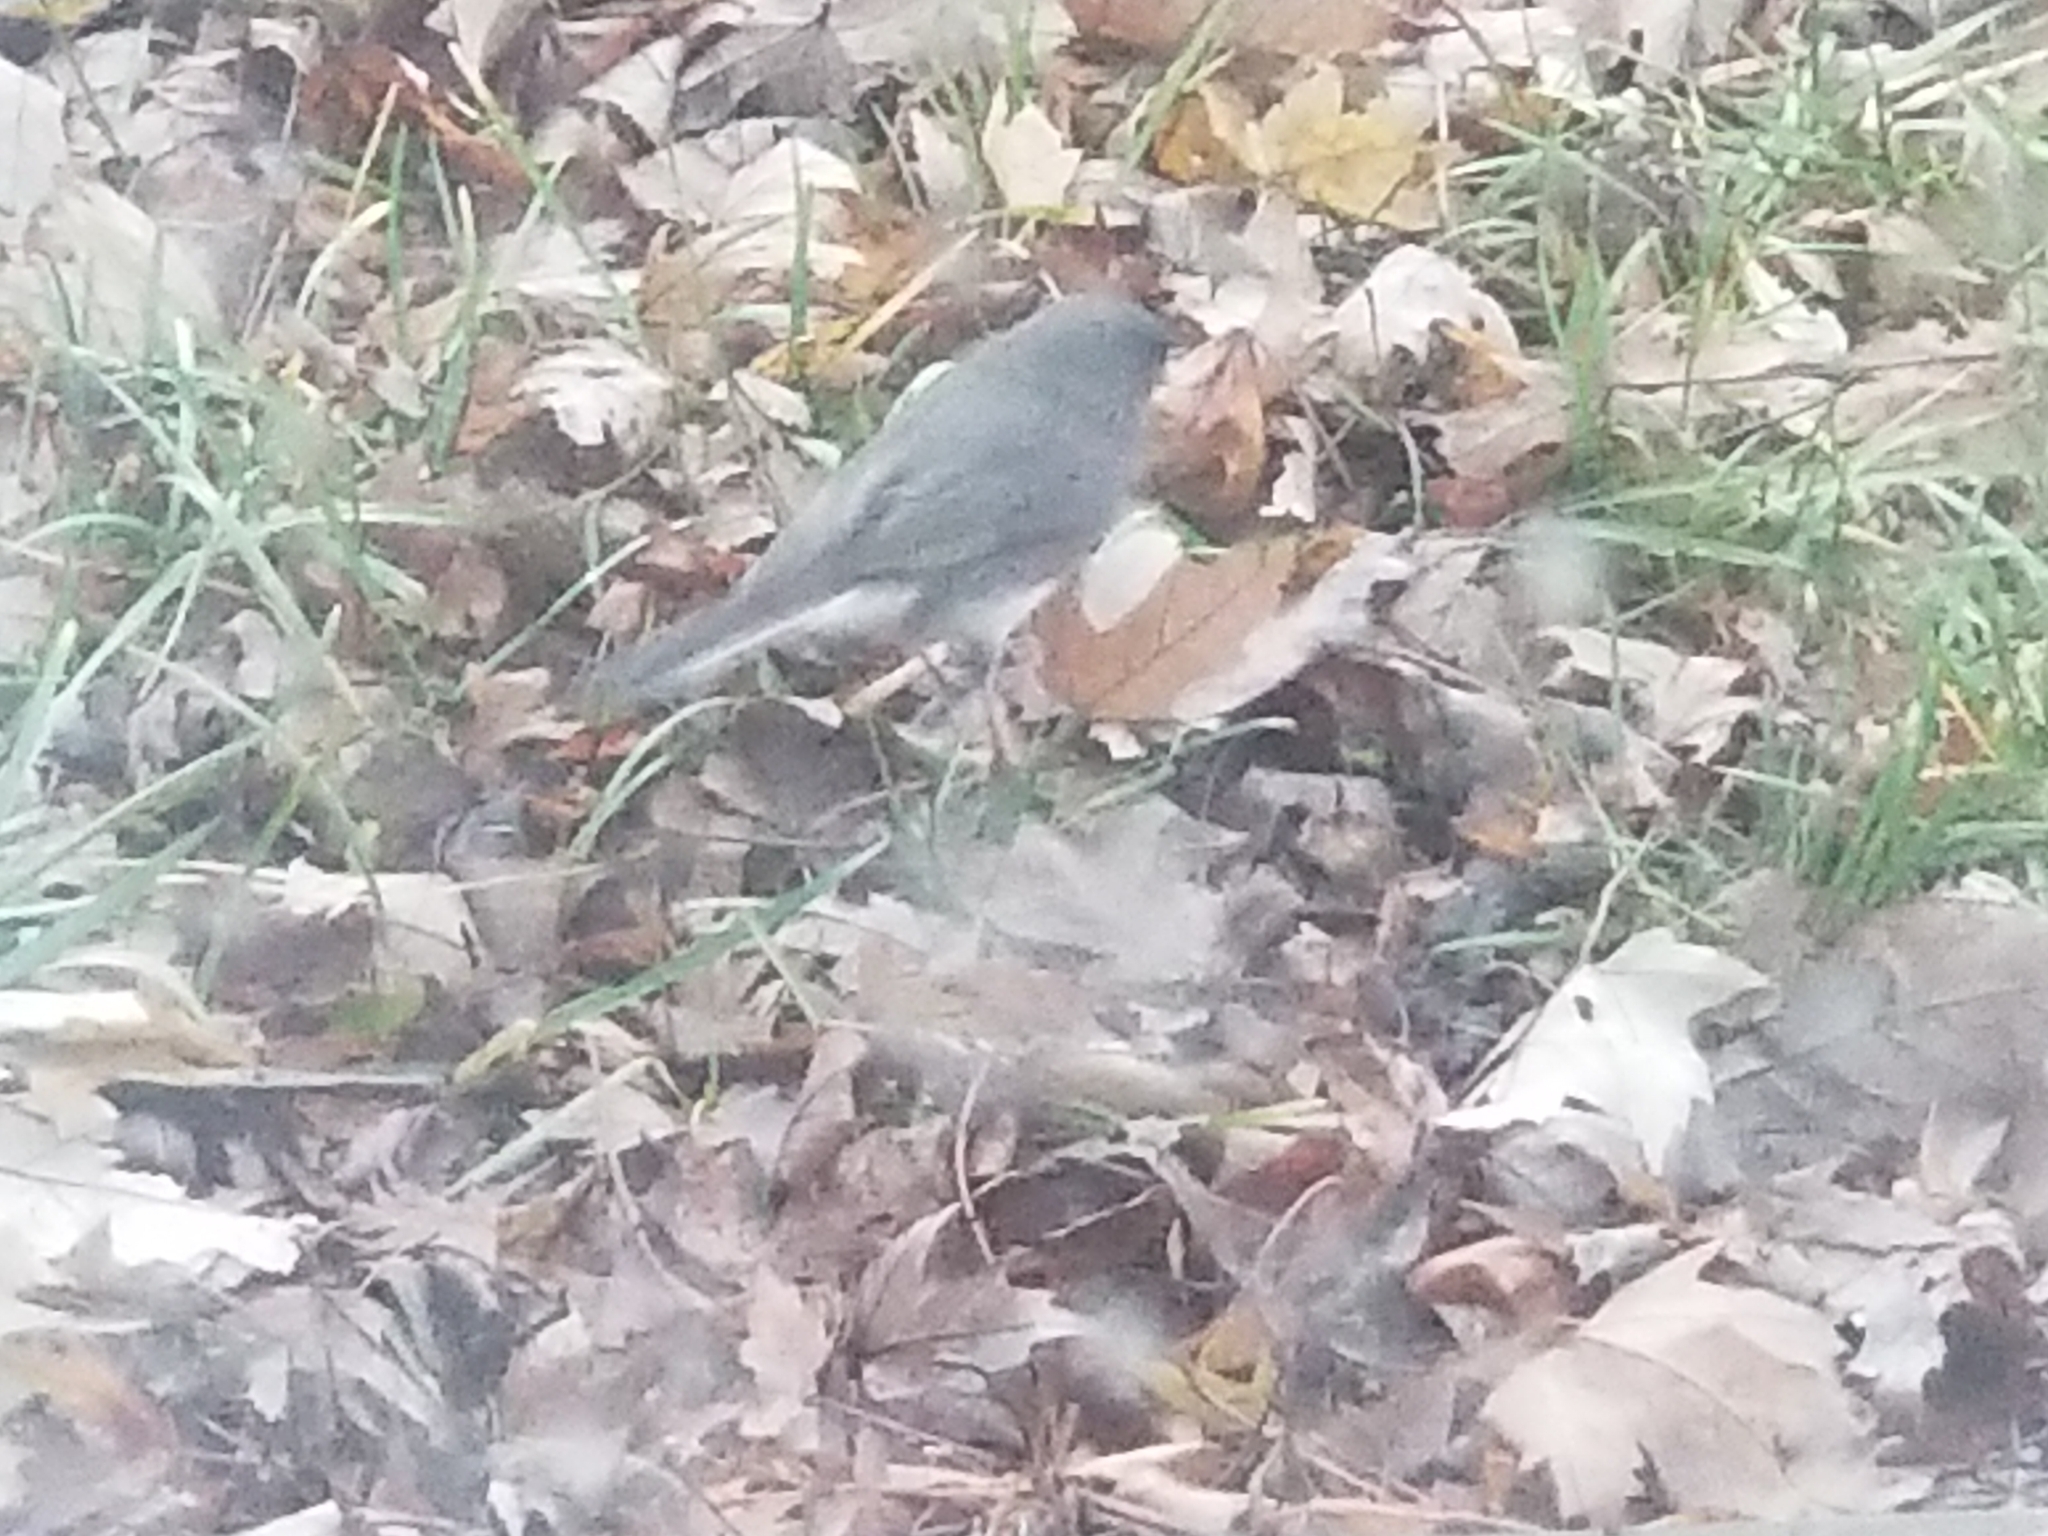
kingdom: Animalia
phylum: Chordata
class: Aves
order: Passeriformes
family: Passerellidae
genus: Junco
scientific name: Junco hyemalis
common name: Dark-eyed junco
